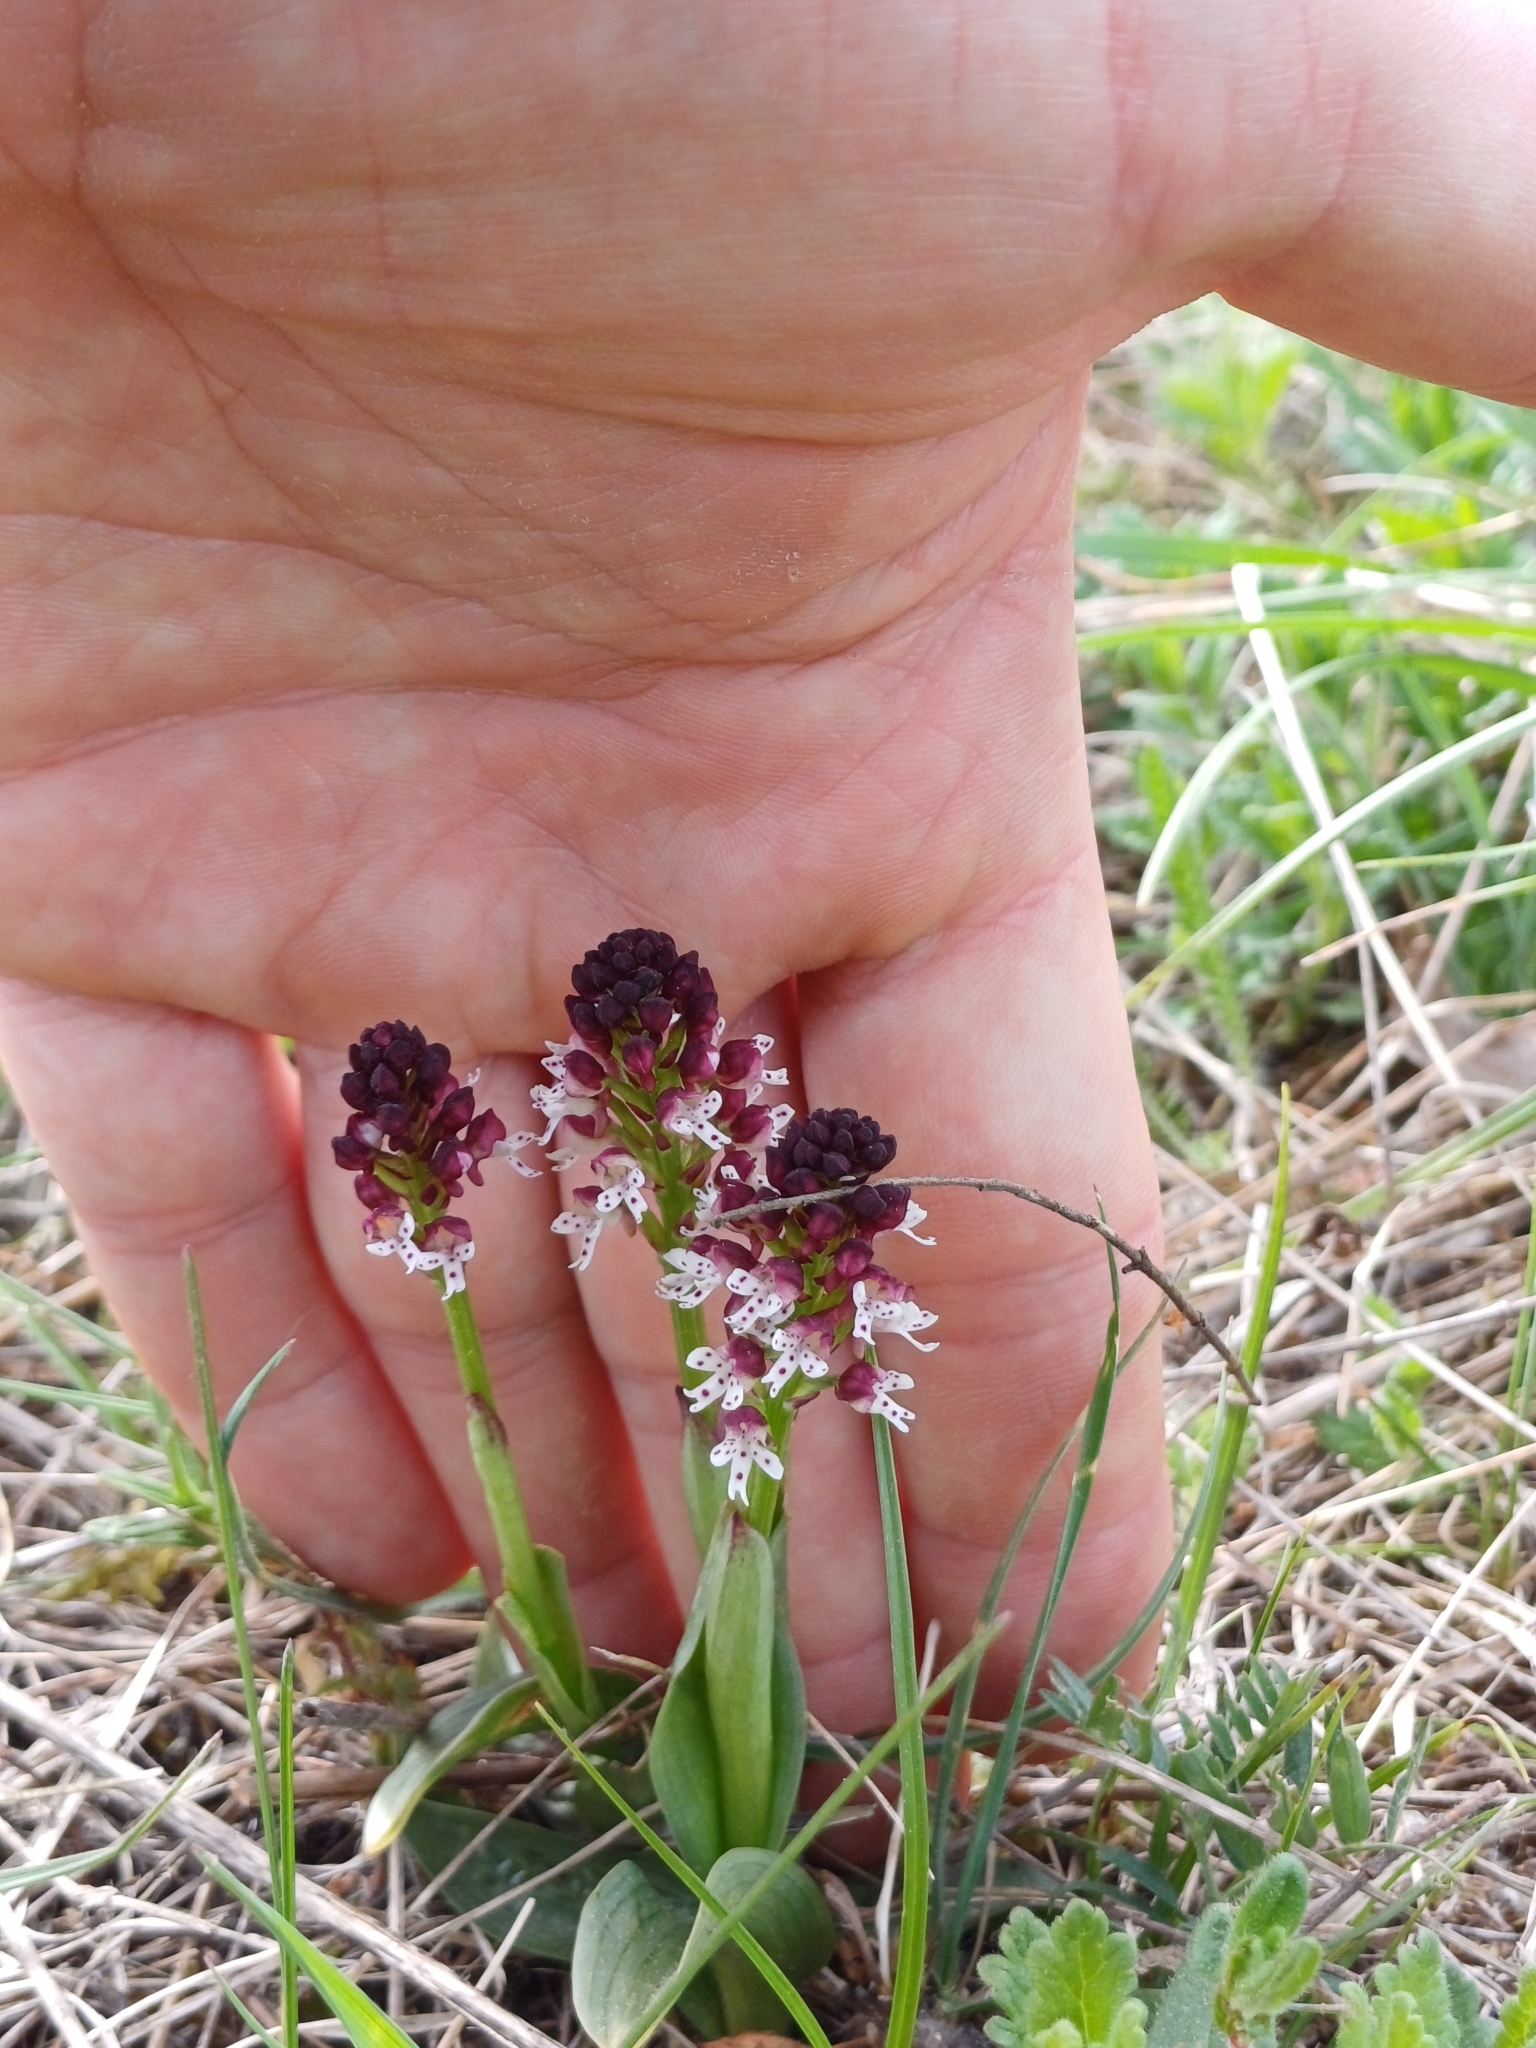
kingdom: Plantae
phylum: Tracheophyta
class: Liliopsida
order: Asparagales
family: Orchidaceae
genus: Neotinea
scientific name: Neotinea ustulata
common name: Burnt orchid
